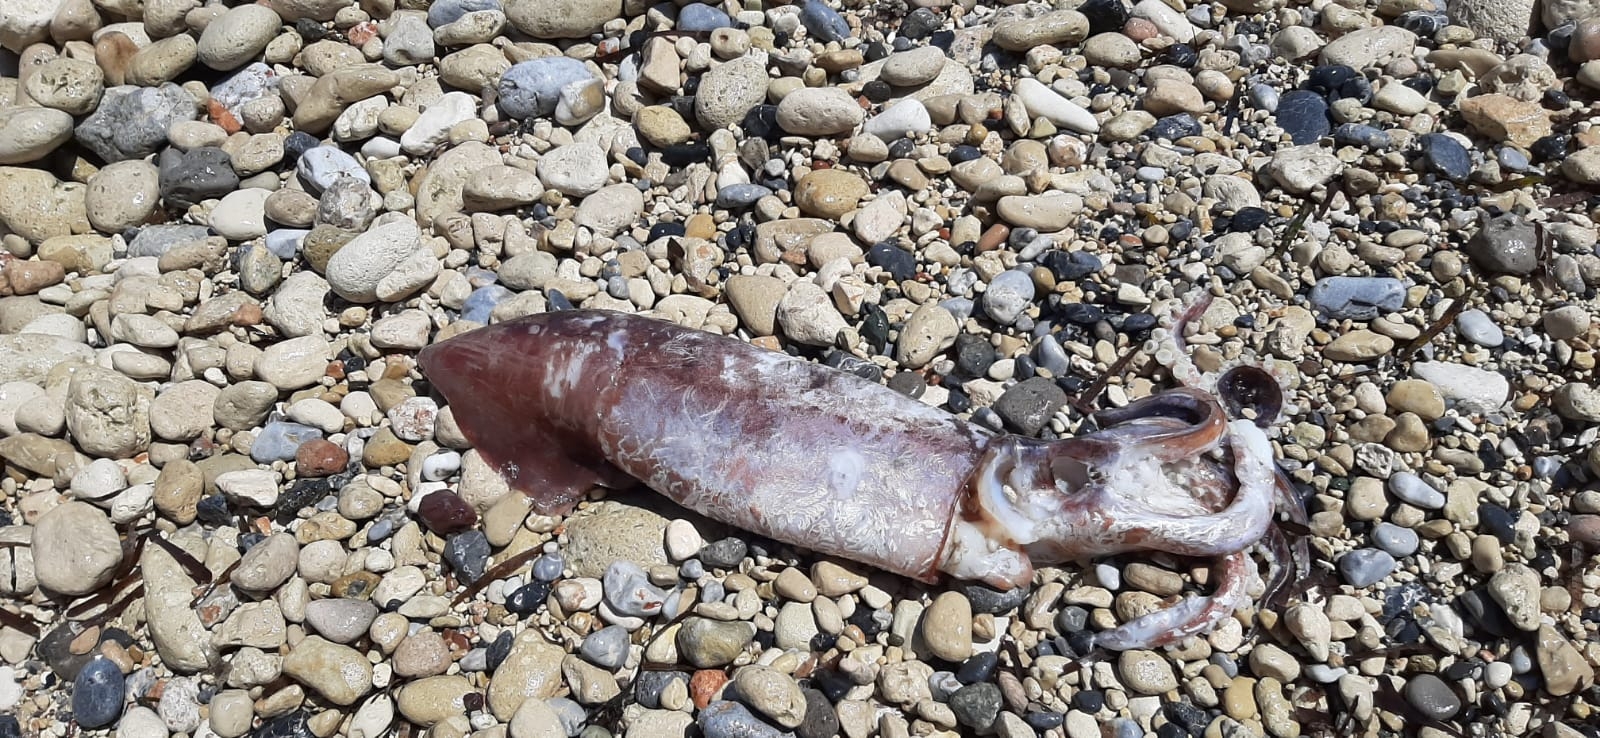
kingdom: Animalia
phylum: Mollusca
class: Cephalopoda
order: Oegopsida
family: Ommastrephidae
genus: Todarodes
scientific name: Todarodes sagittatus
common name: European flying squid
